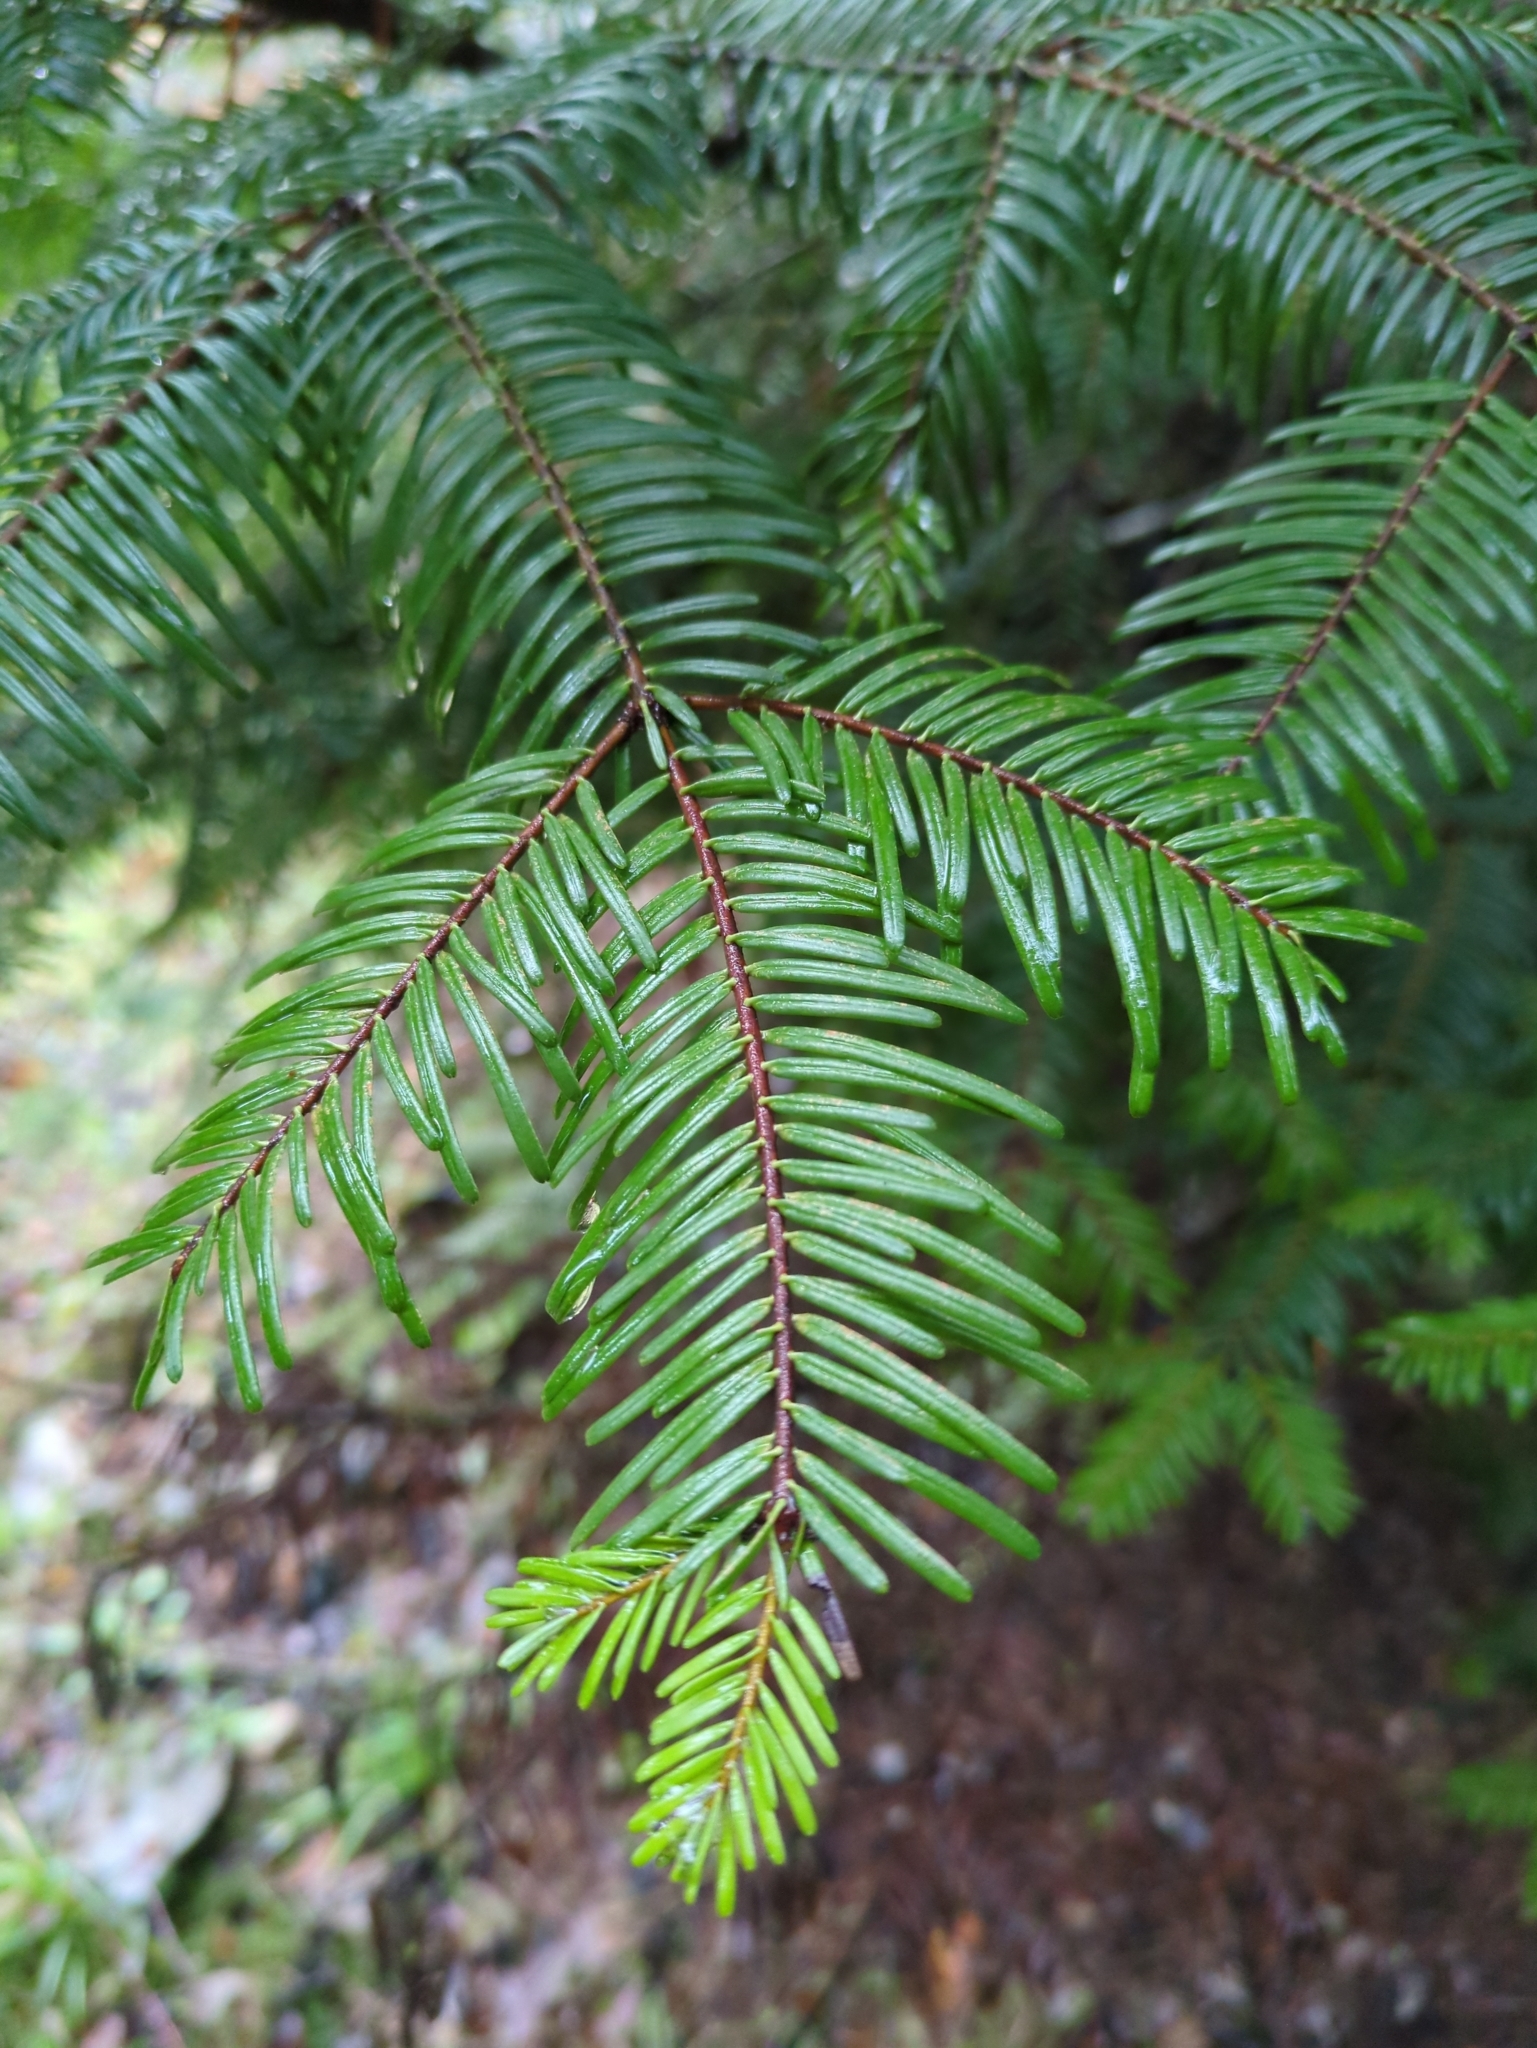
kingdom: Plantae
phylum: Tracheophyta
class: Pinopsida
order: Pinales
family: Pinaceae
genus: Abies
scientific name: Abies grandis
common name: Giant fir
